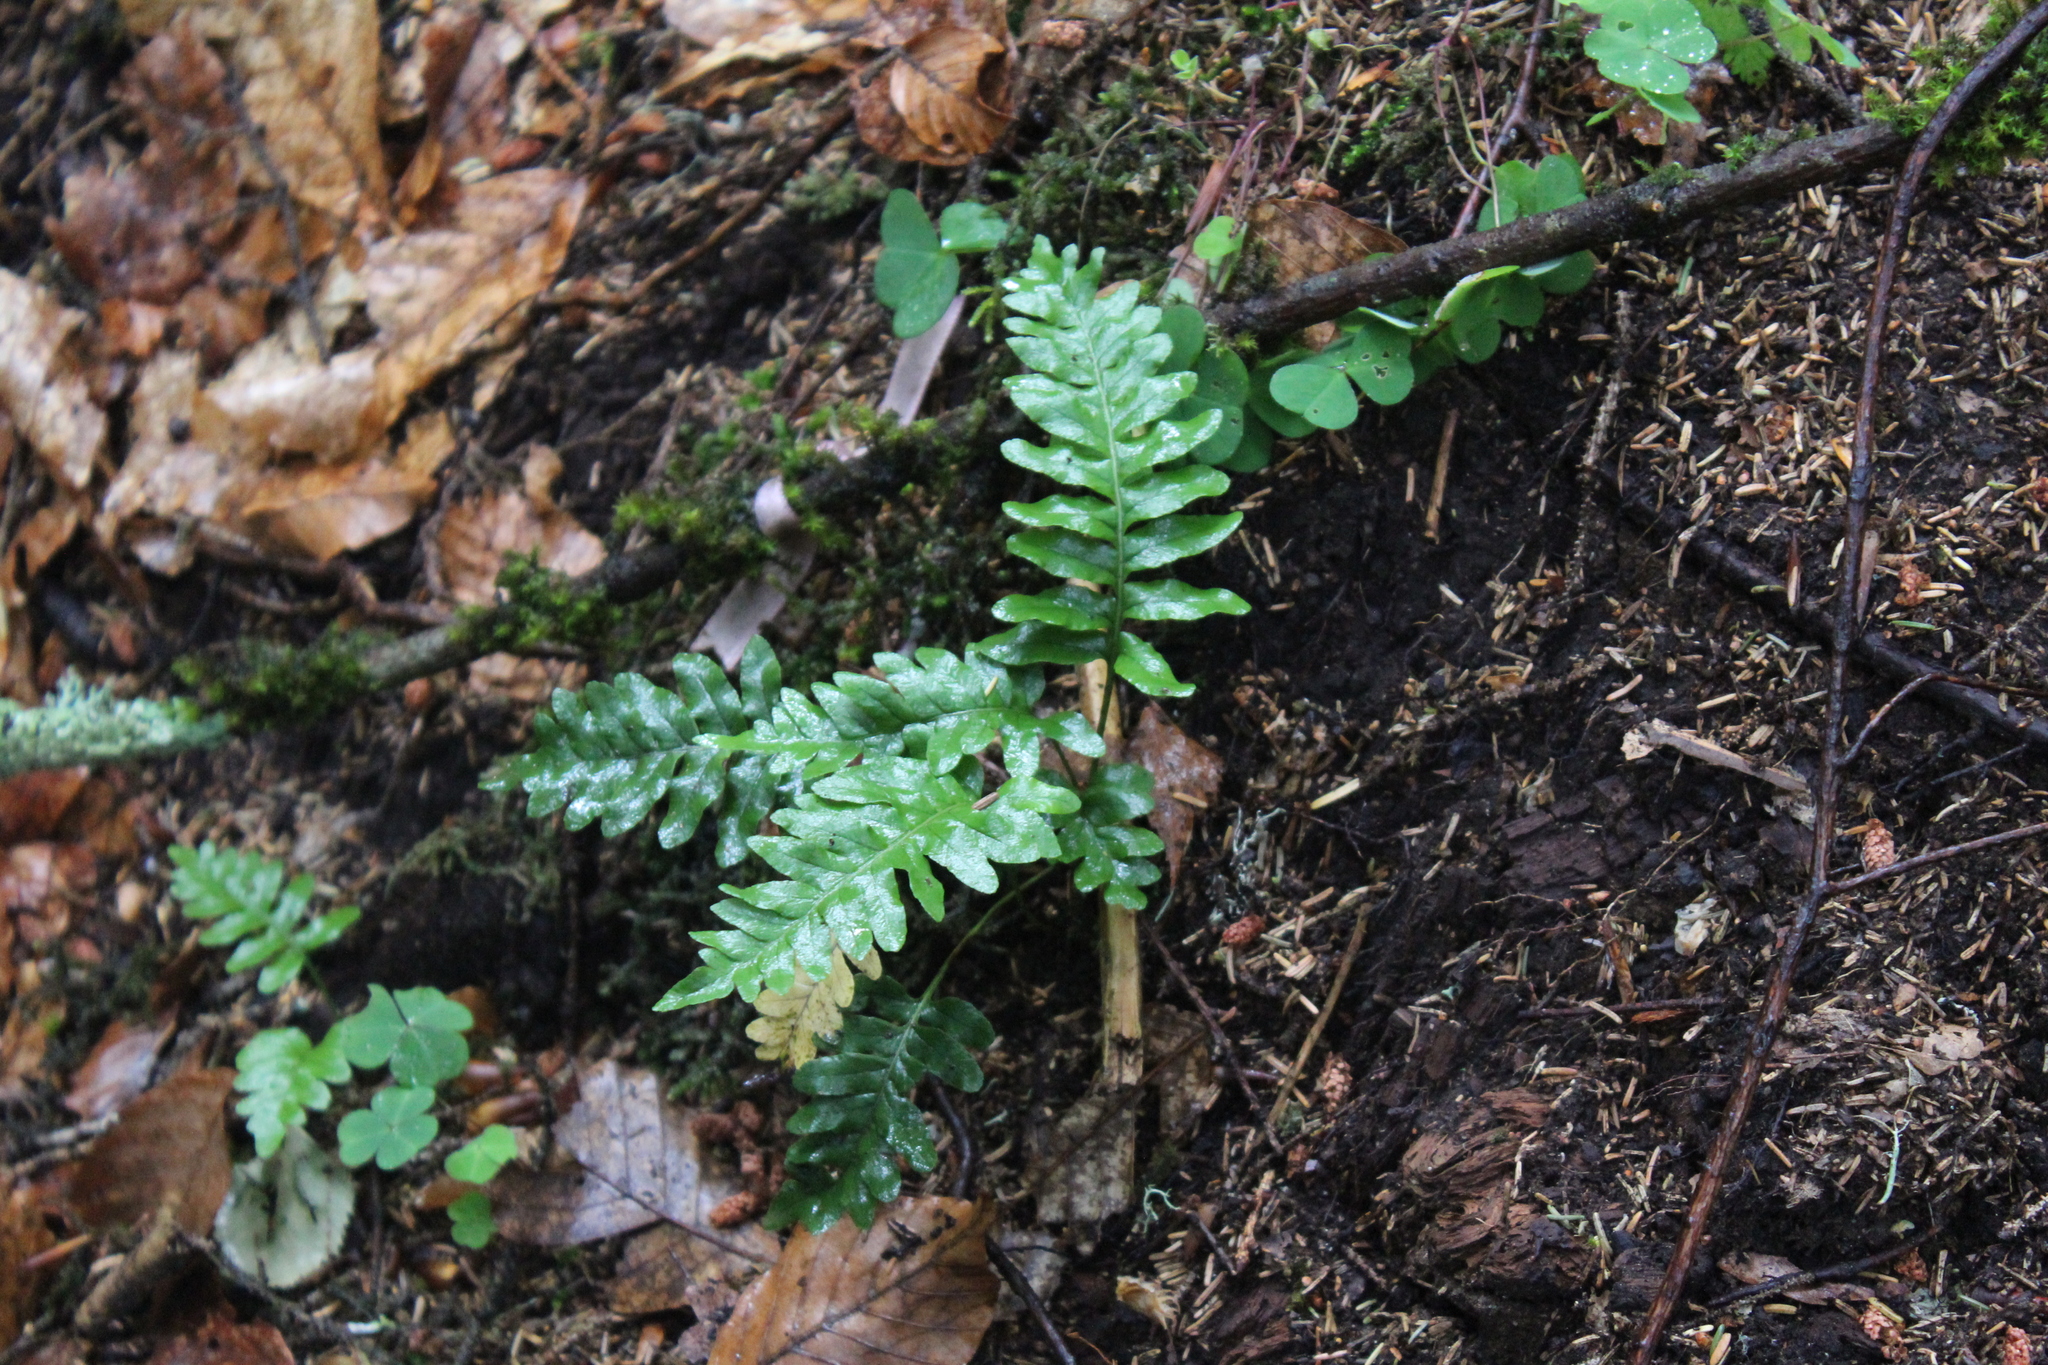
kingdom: Plantae
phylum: Tracheophyta
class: Polypodiopsida
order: Polypodiales
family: Polypodiaceae
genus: Polypodium
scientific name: Polypodium vulgare
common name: Common polypody
